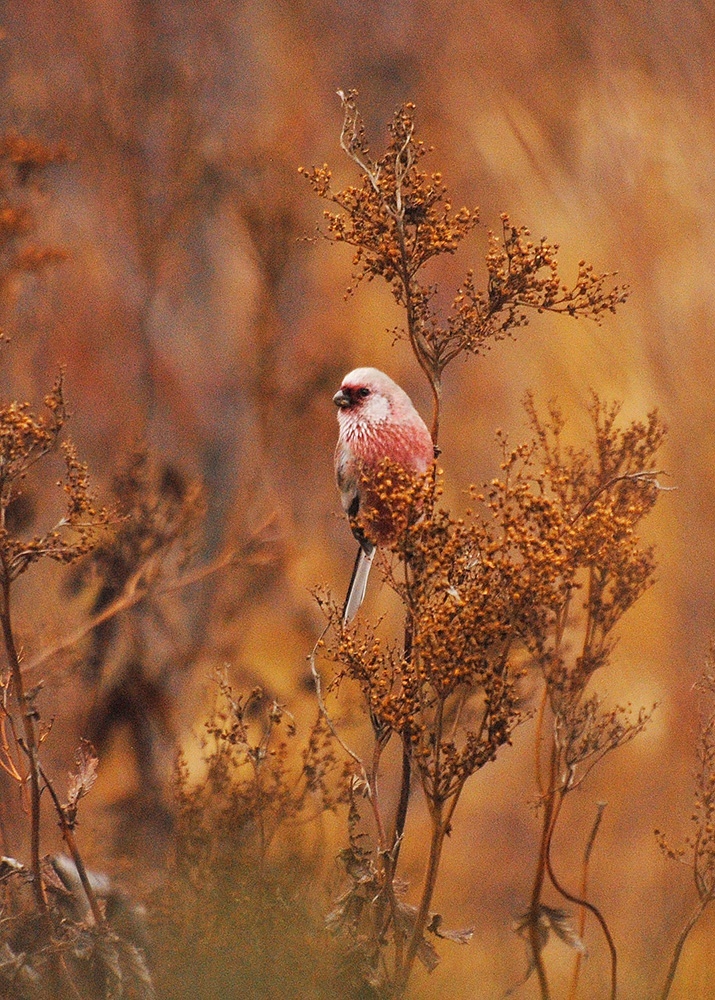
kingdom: Animalia
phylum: Chordata
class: Aves
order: Passeriformes
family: Fringillidae
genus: Carpodacus
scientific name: Carpodacus sibiricus
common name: Long-tailed rosefinch
